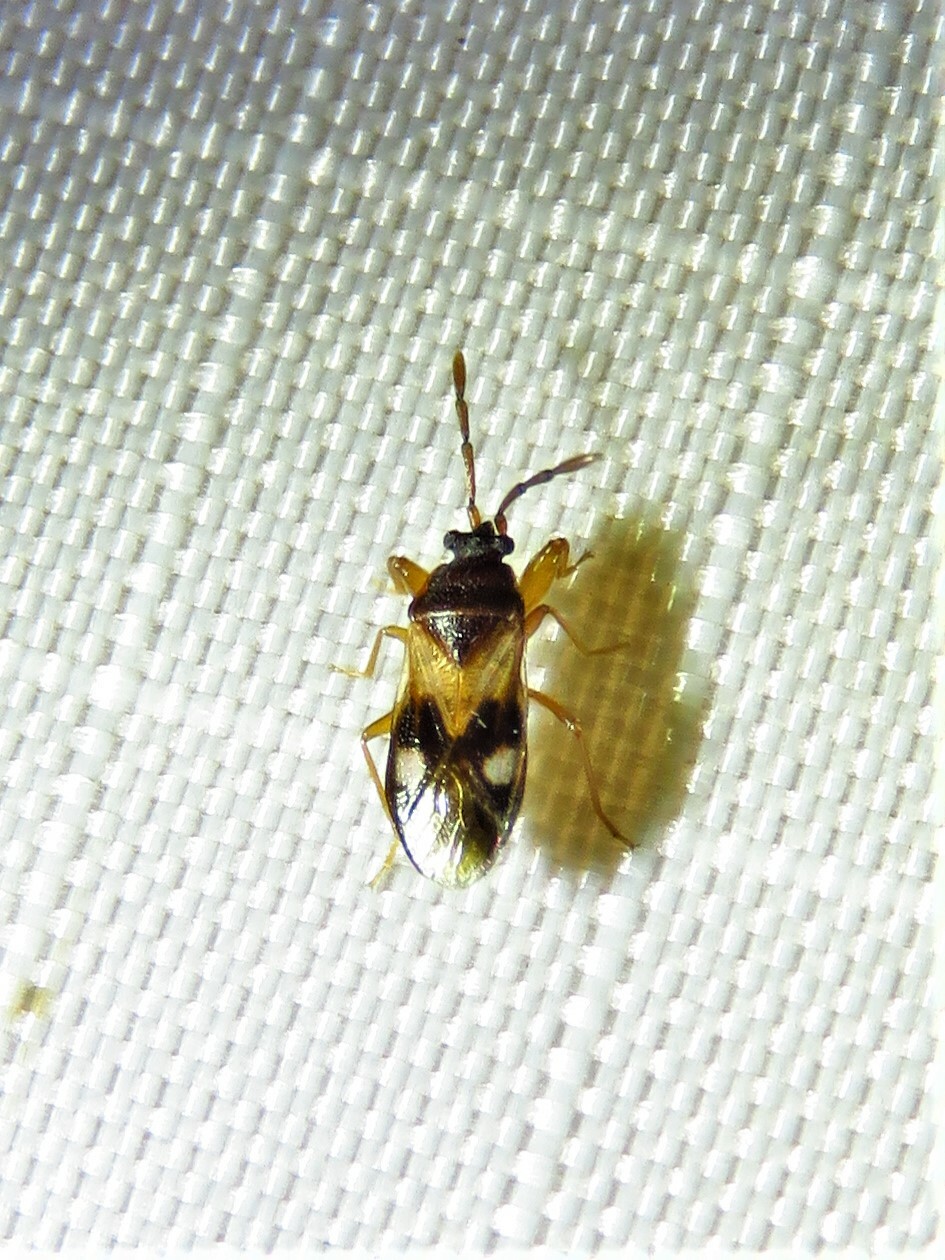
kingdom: Animalia
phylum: Arthropoda
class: Insecta
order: Hemiptera
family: Rhyparochromidae
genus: Tempyra
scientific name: Tempyra biguttula
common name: Seed bug
